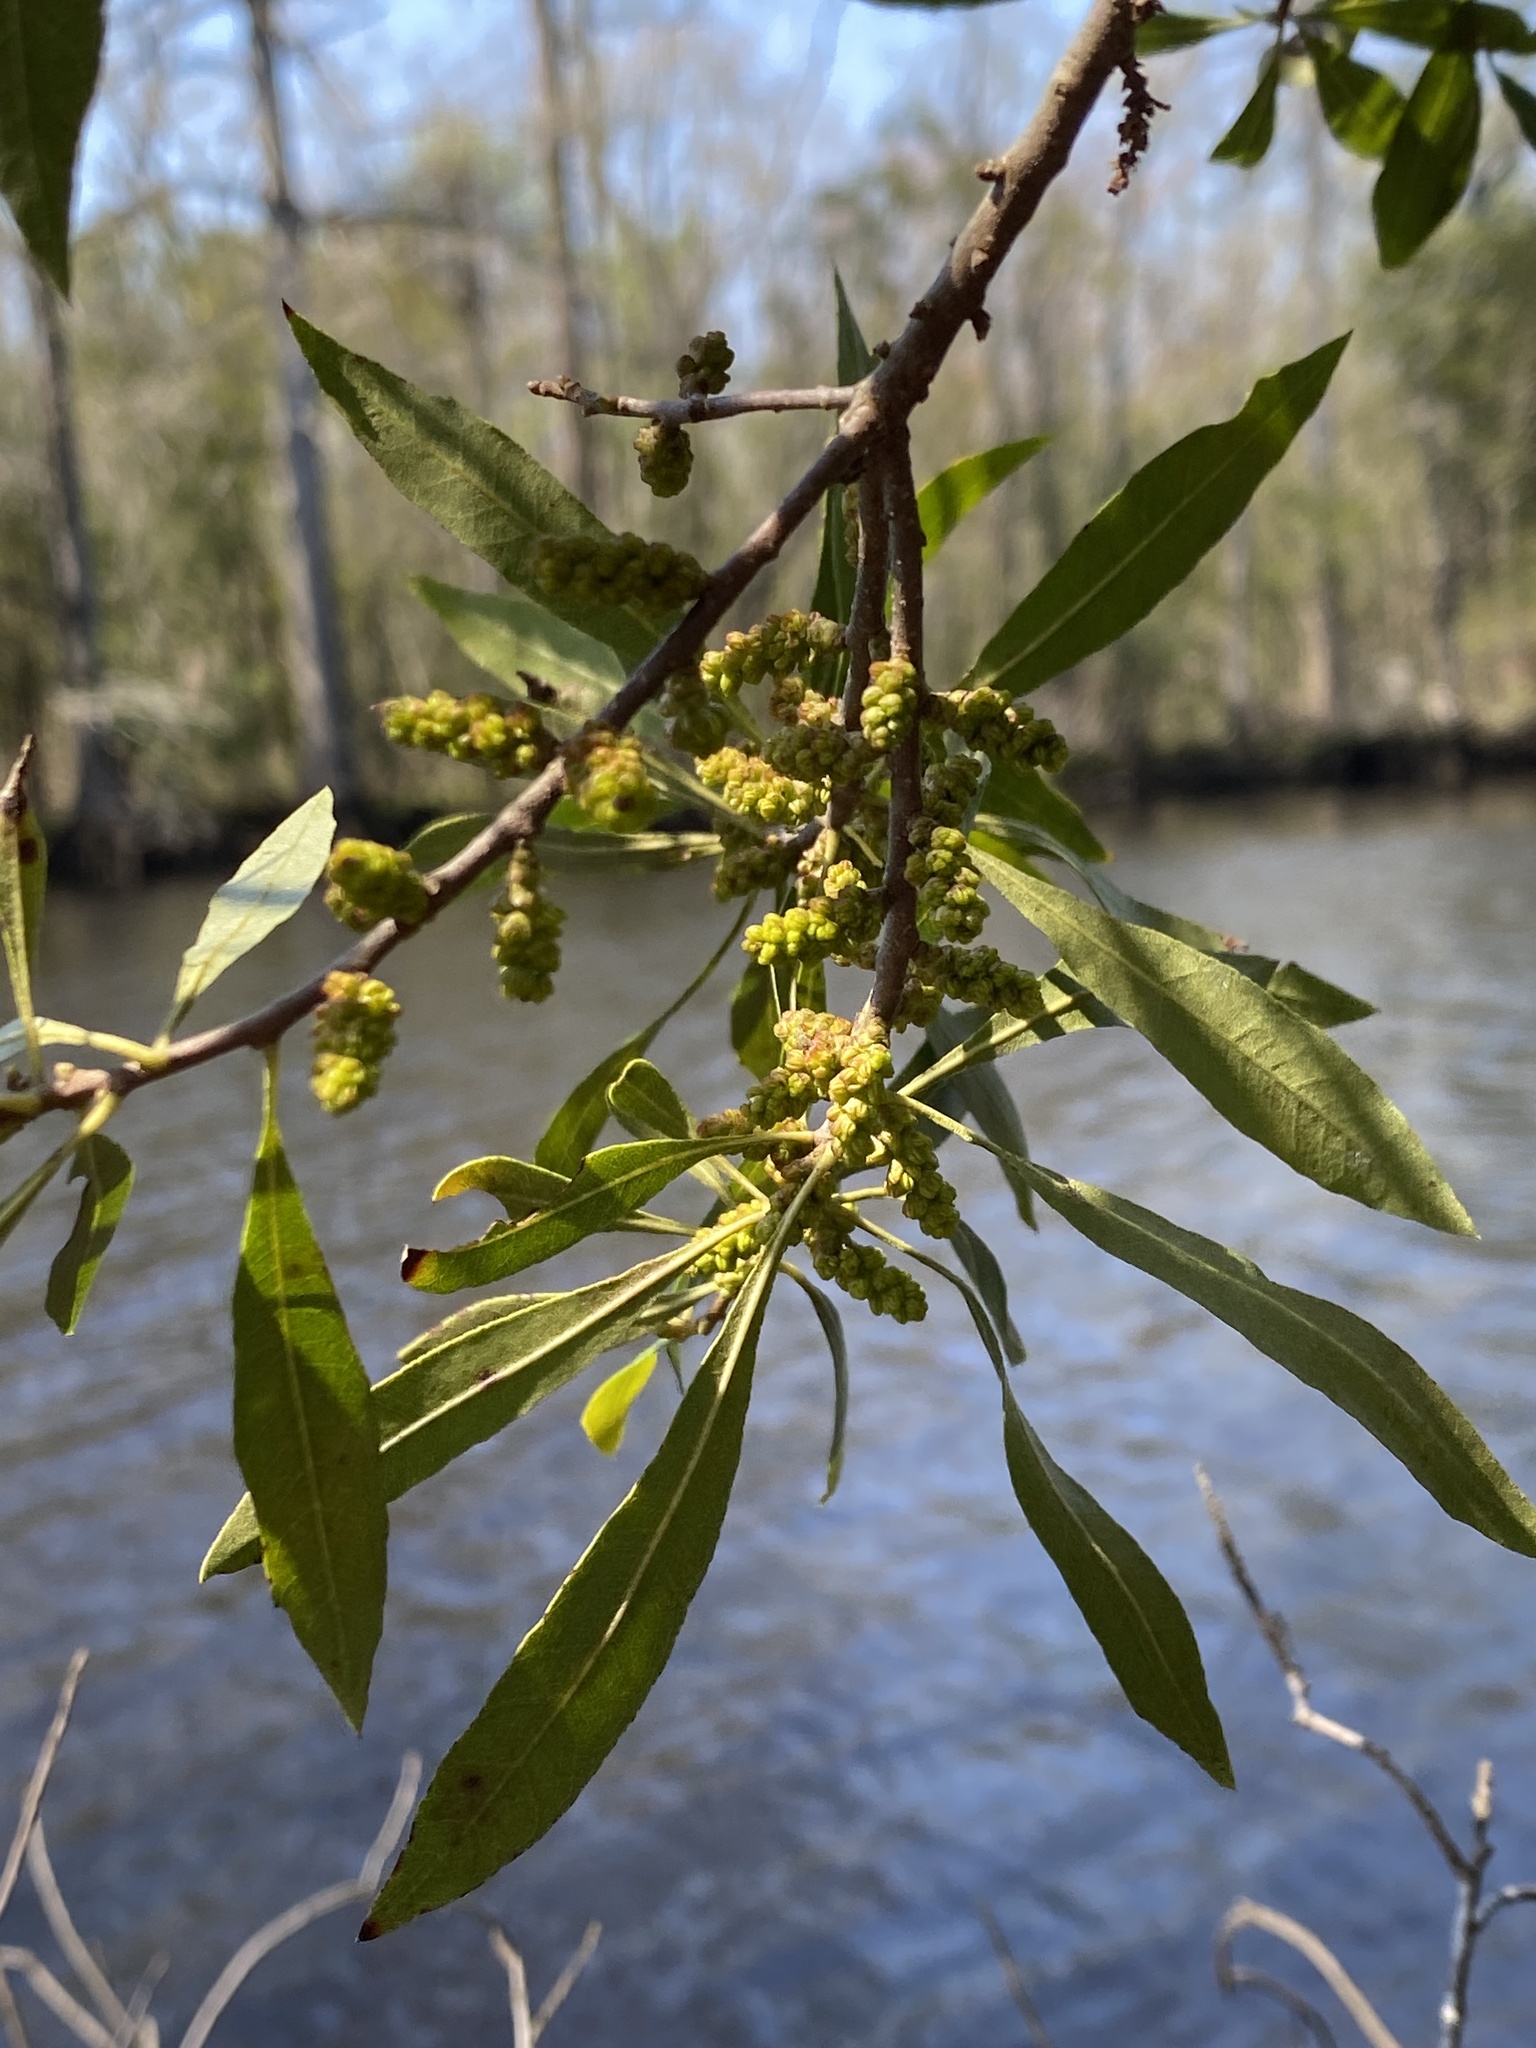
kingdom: Plantae
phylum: Tracheophyta
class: Magnoliopsida
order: Fagales
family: Myricaceae
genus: Morella
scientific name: Morella cerifera
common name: Wax myrtle
